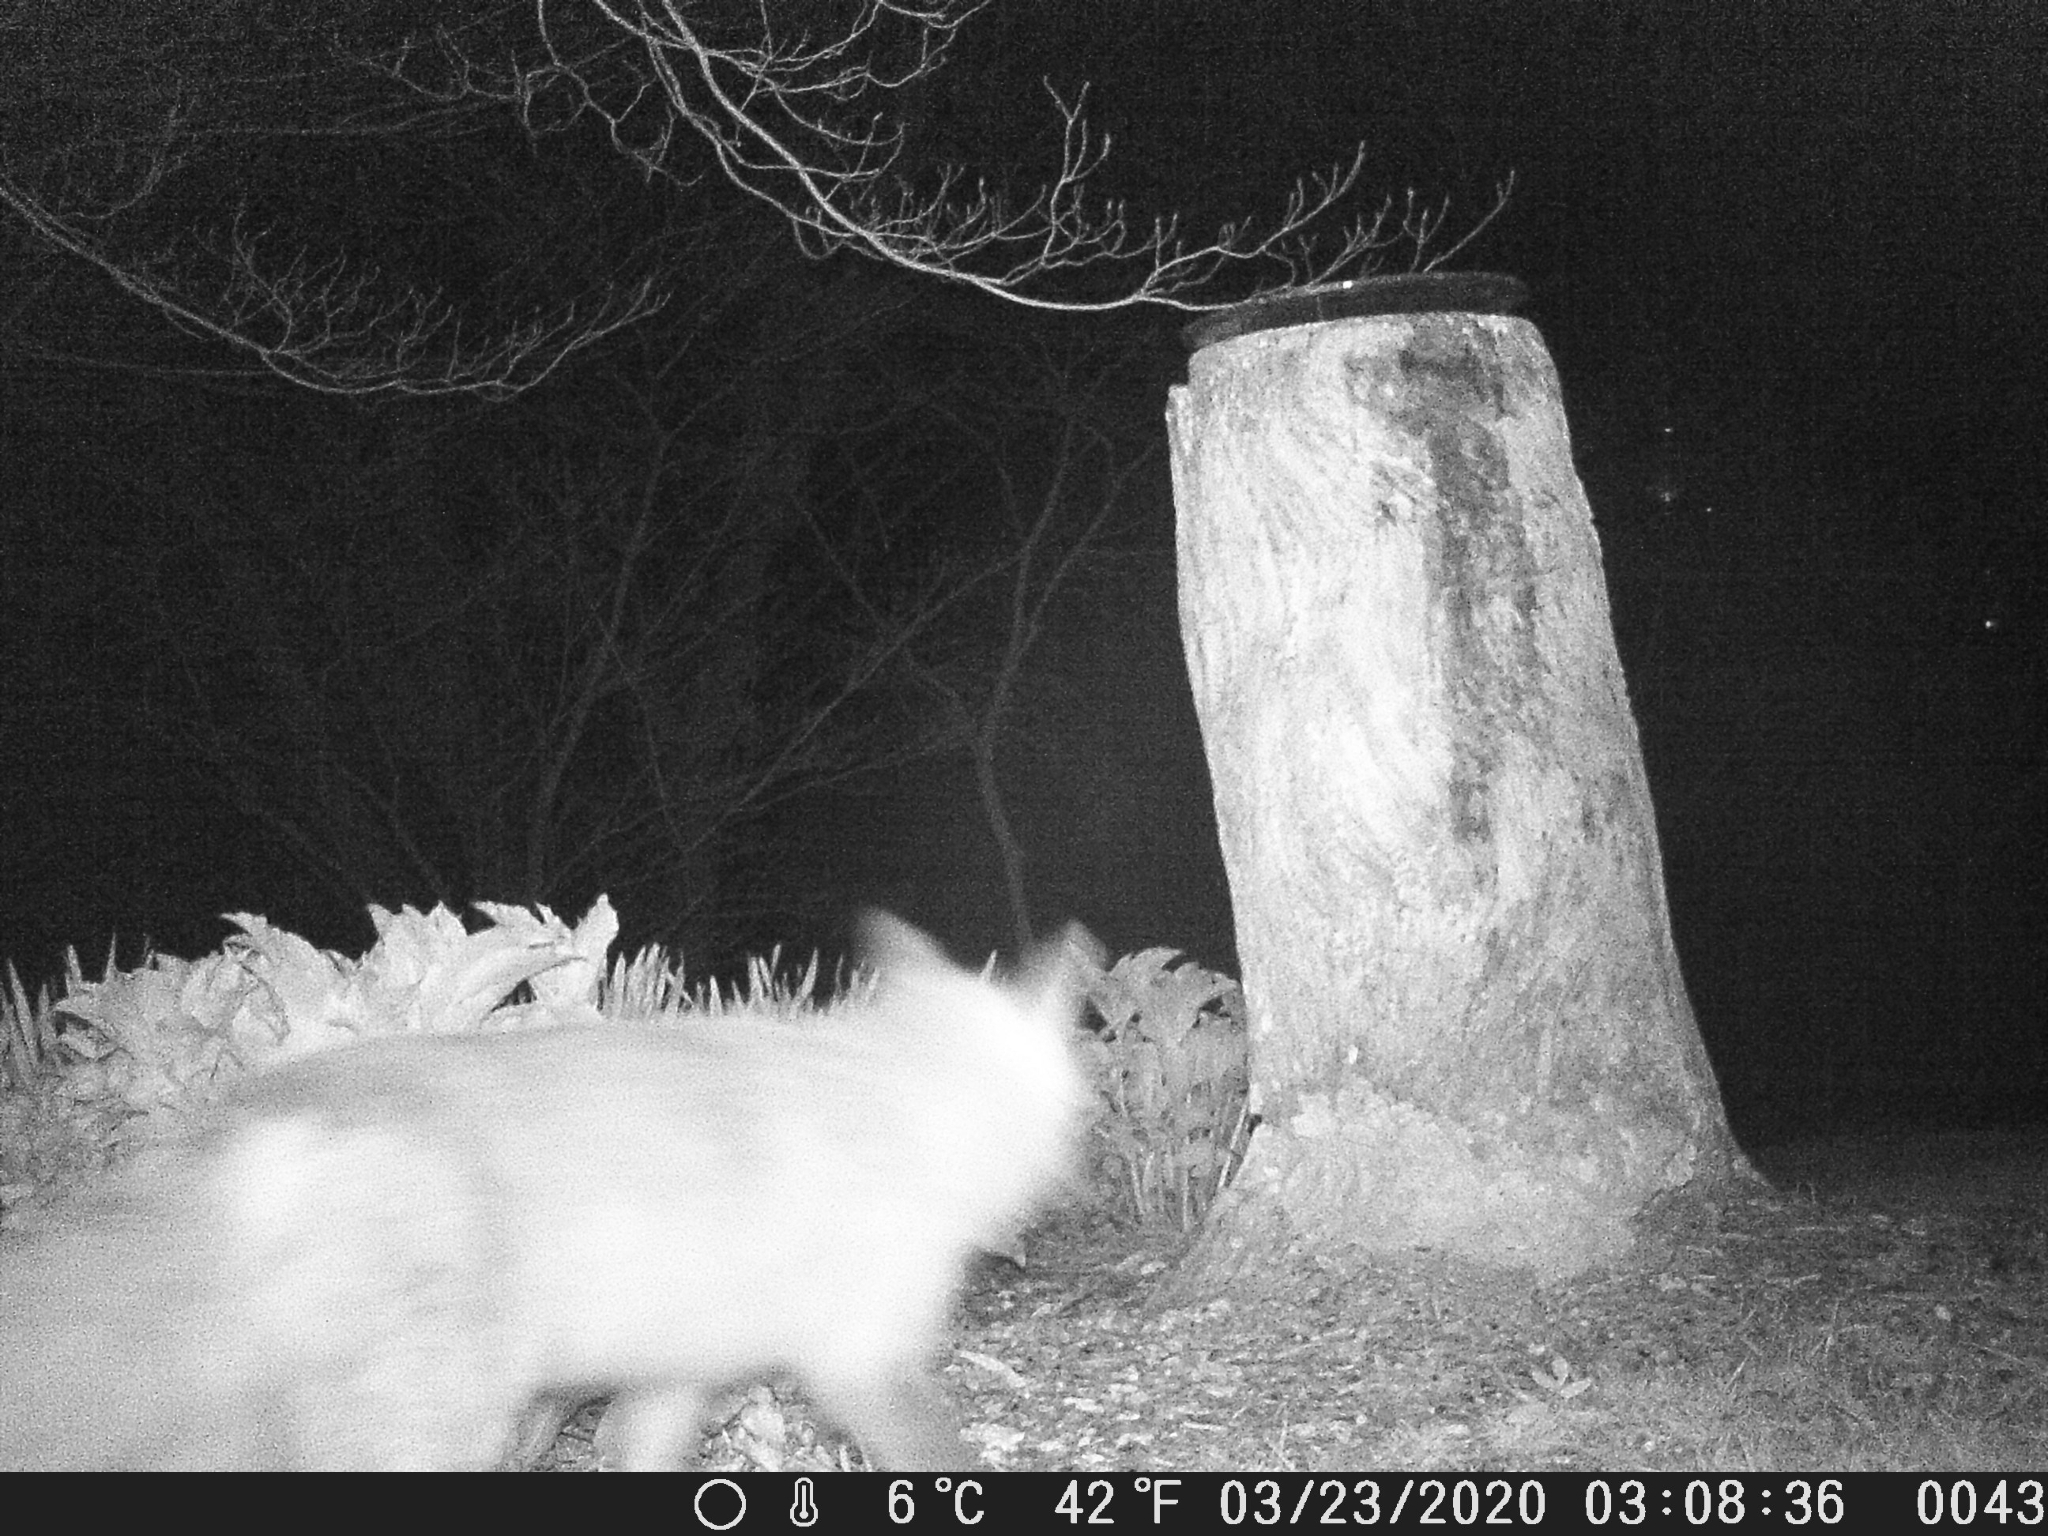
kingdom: Animalia
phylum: Chordata
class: Mammalia
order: Carnivora
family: Canidae
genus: Vulpes
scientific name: Vulpes vulpes
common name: Red fox
